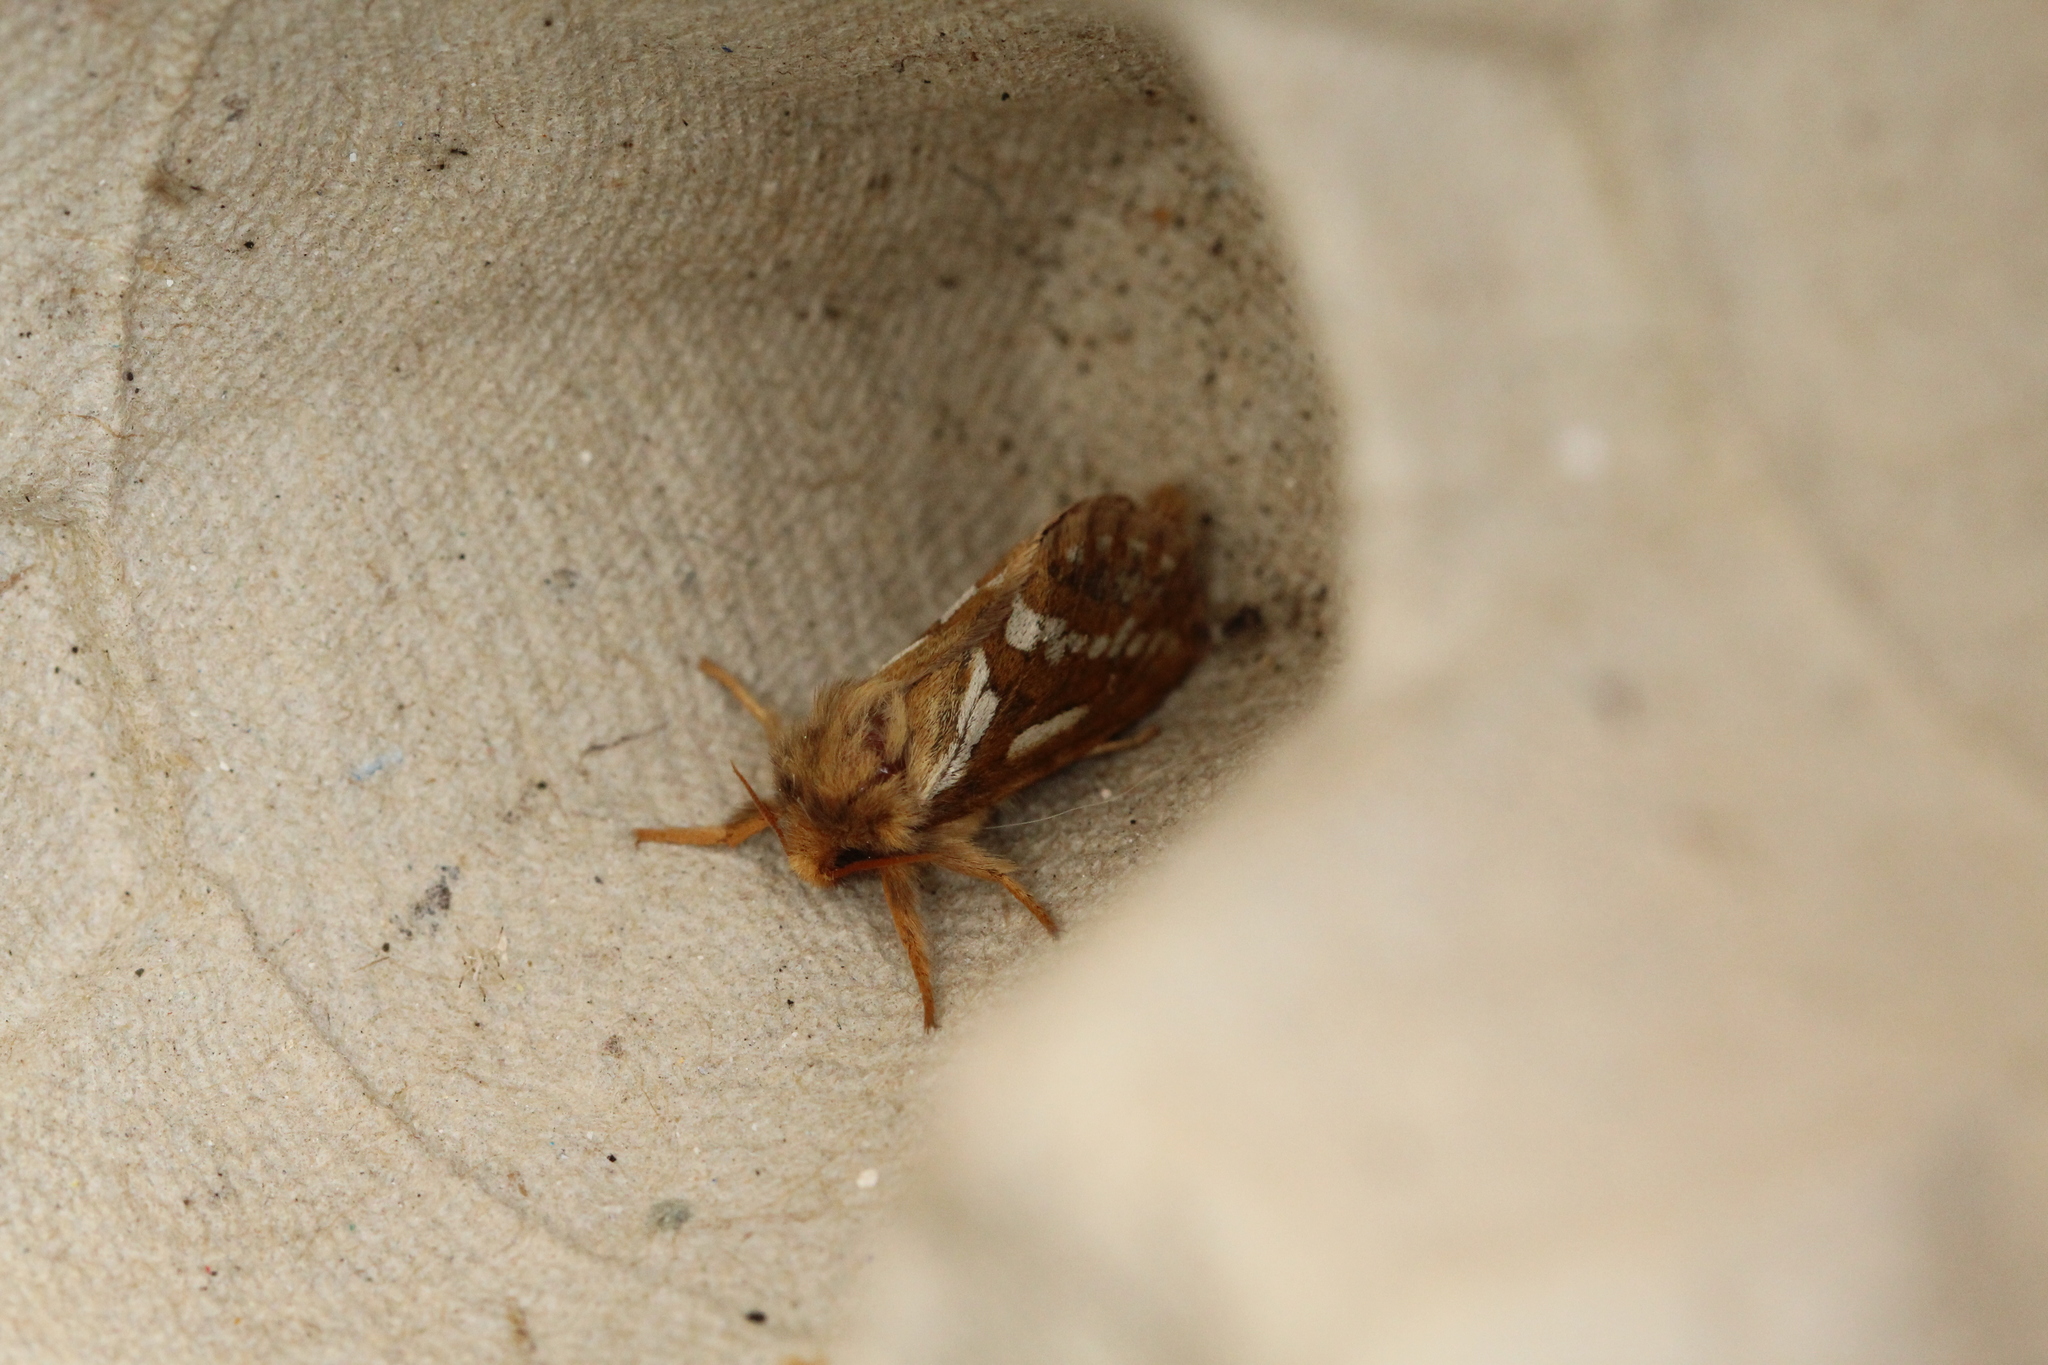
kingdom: Animalia
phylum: Arthropoda
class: Insecta
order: Lepidoptera
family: Hepialidae
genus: Korscheltellus
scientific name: Korscheltellus lupulina
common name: Common swift
